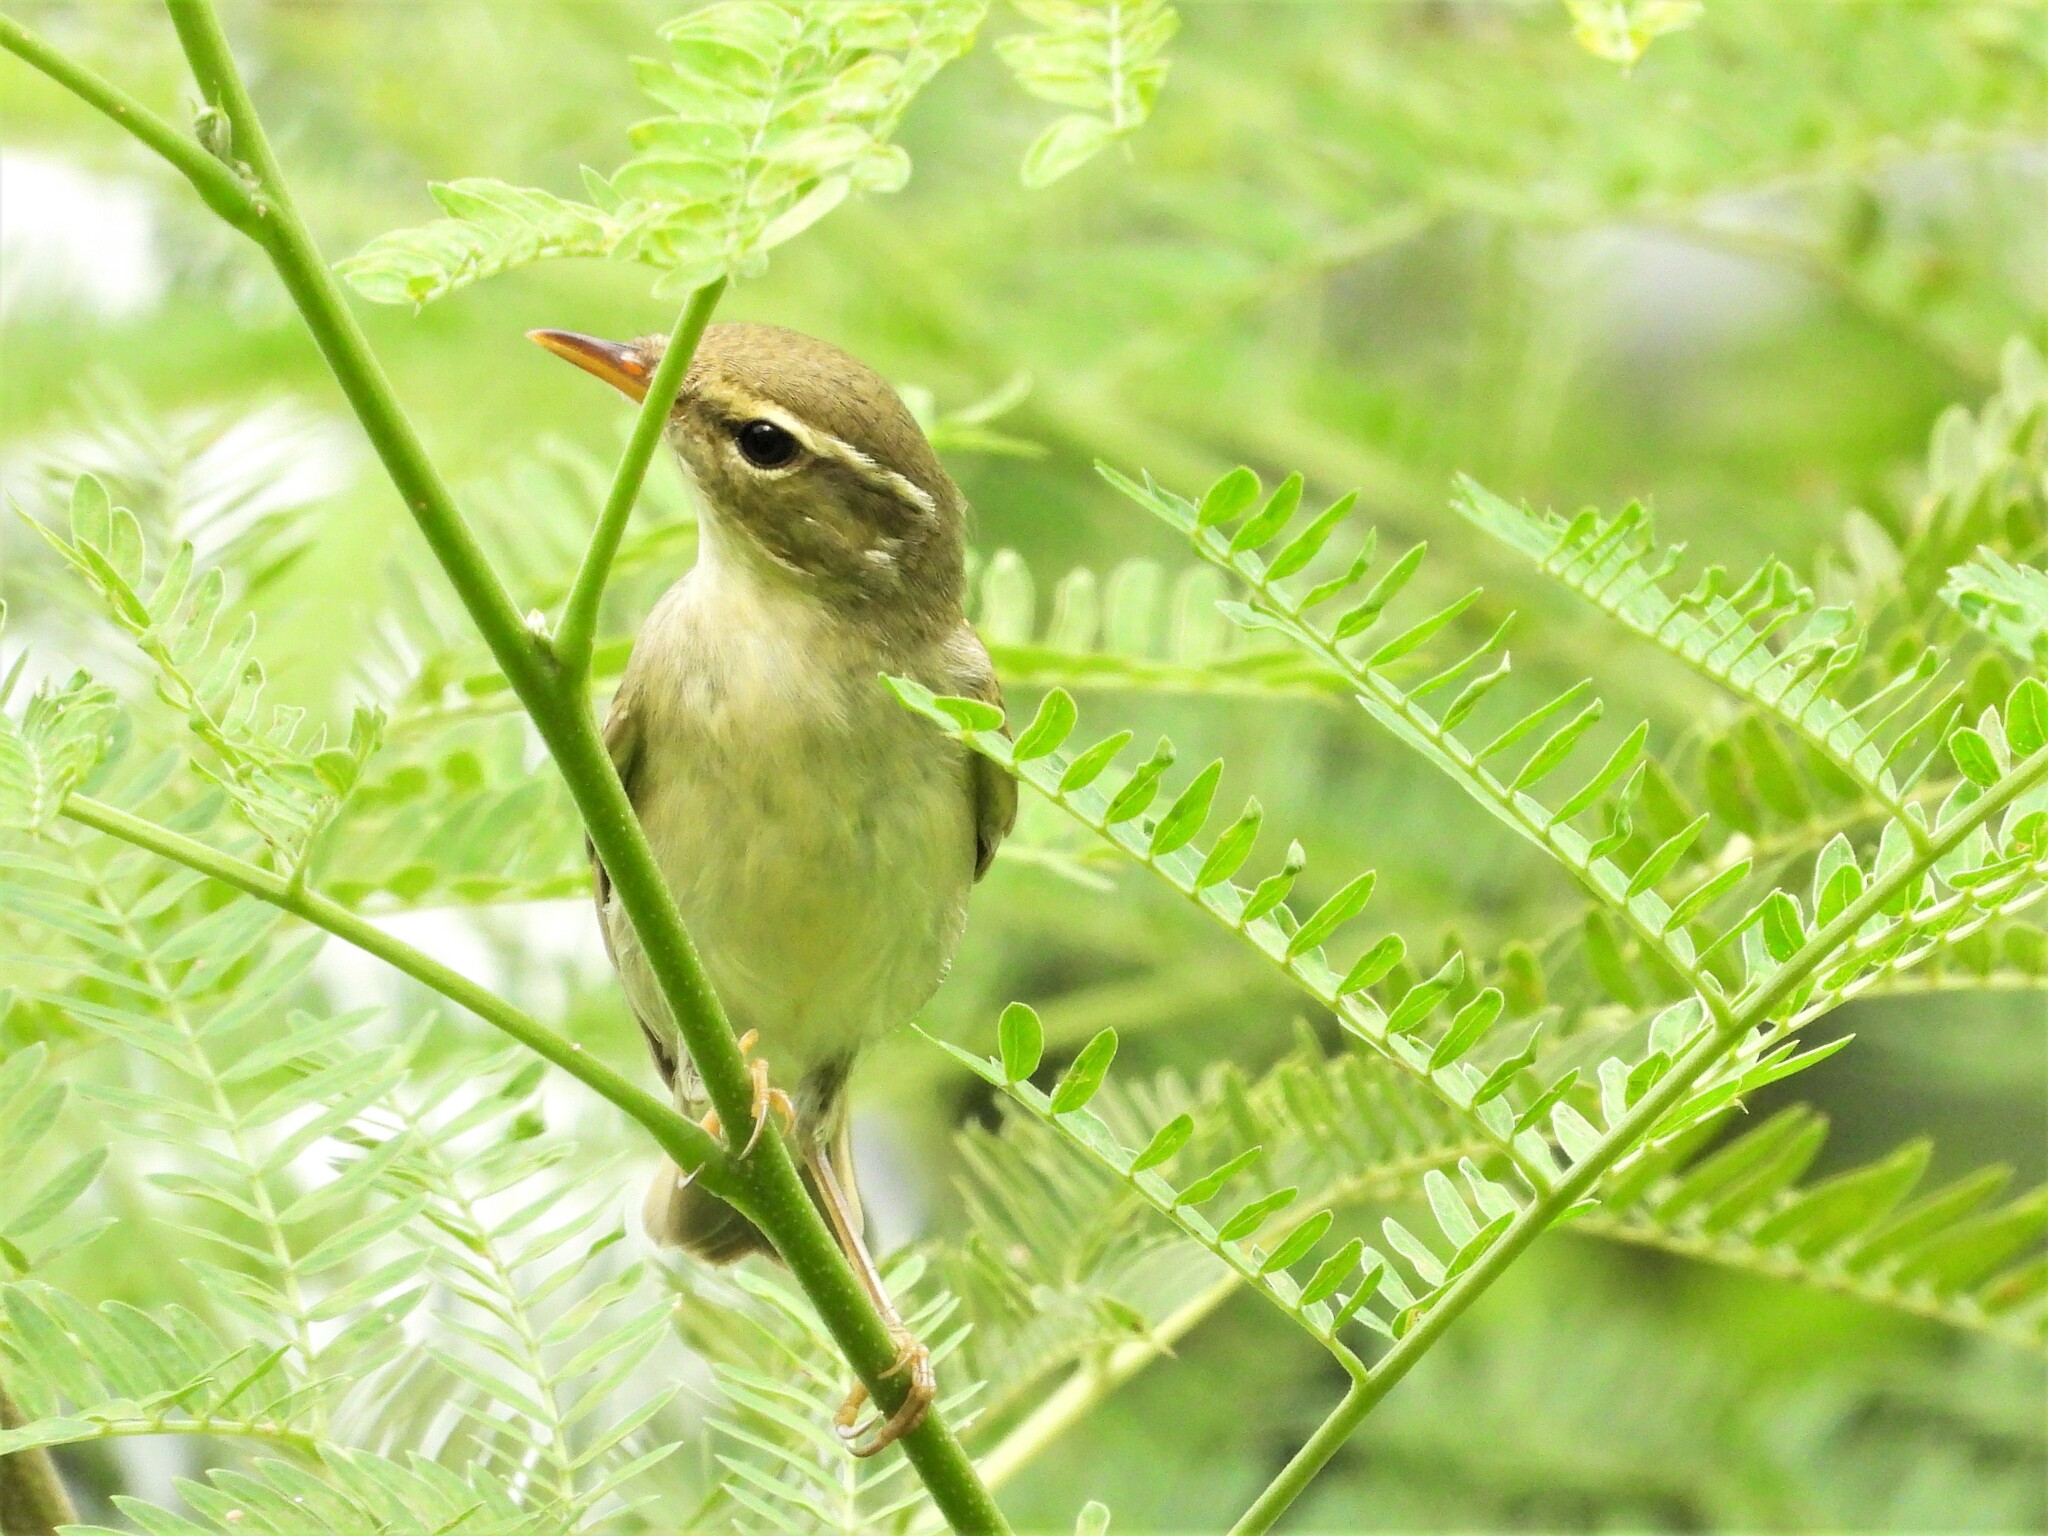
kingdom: Animalia
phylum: Chordata
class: Aves
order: Passeriformes
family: Phylloscopidae
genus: Phylloscopus
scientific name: Phylloscopus borealis
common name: Arctic warbler
